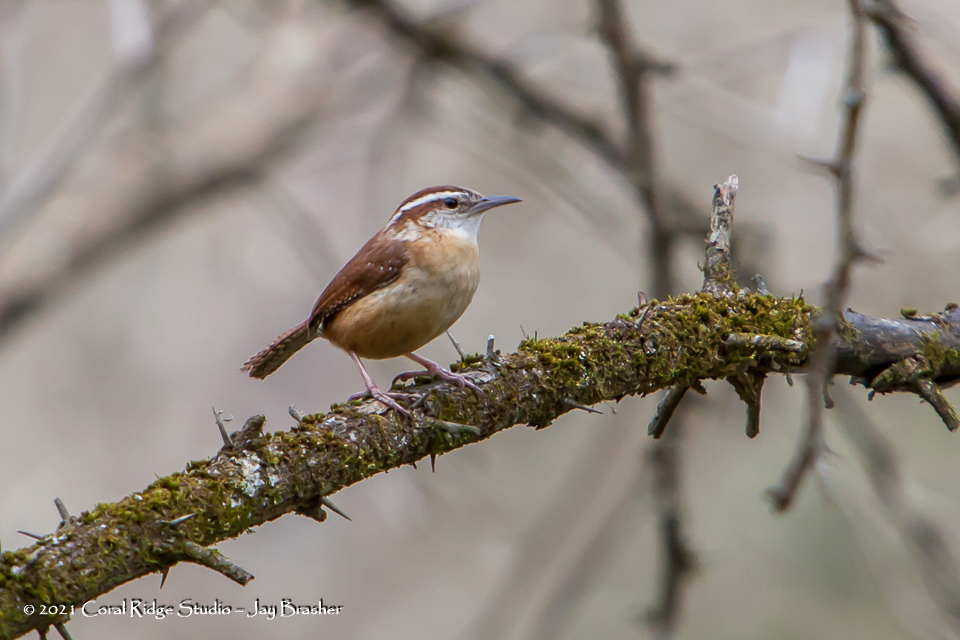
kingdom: Animalia
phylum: Chordata
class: Aves
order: Passeriformes
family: Troglodytidae
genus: Thryothorus
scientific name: Thryothorus ludovicianus
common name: Carolina wren
